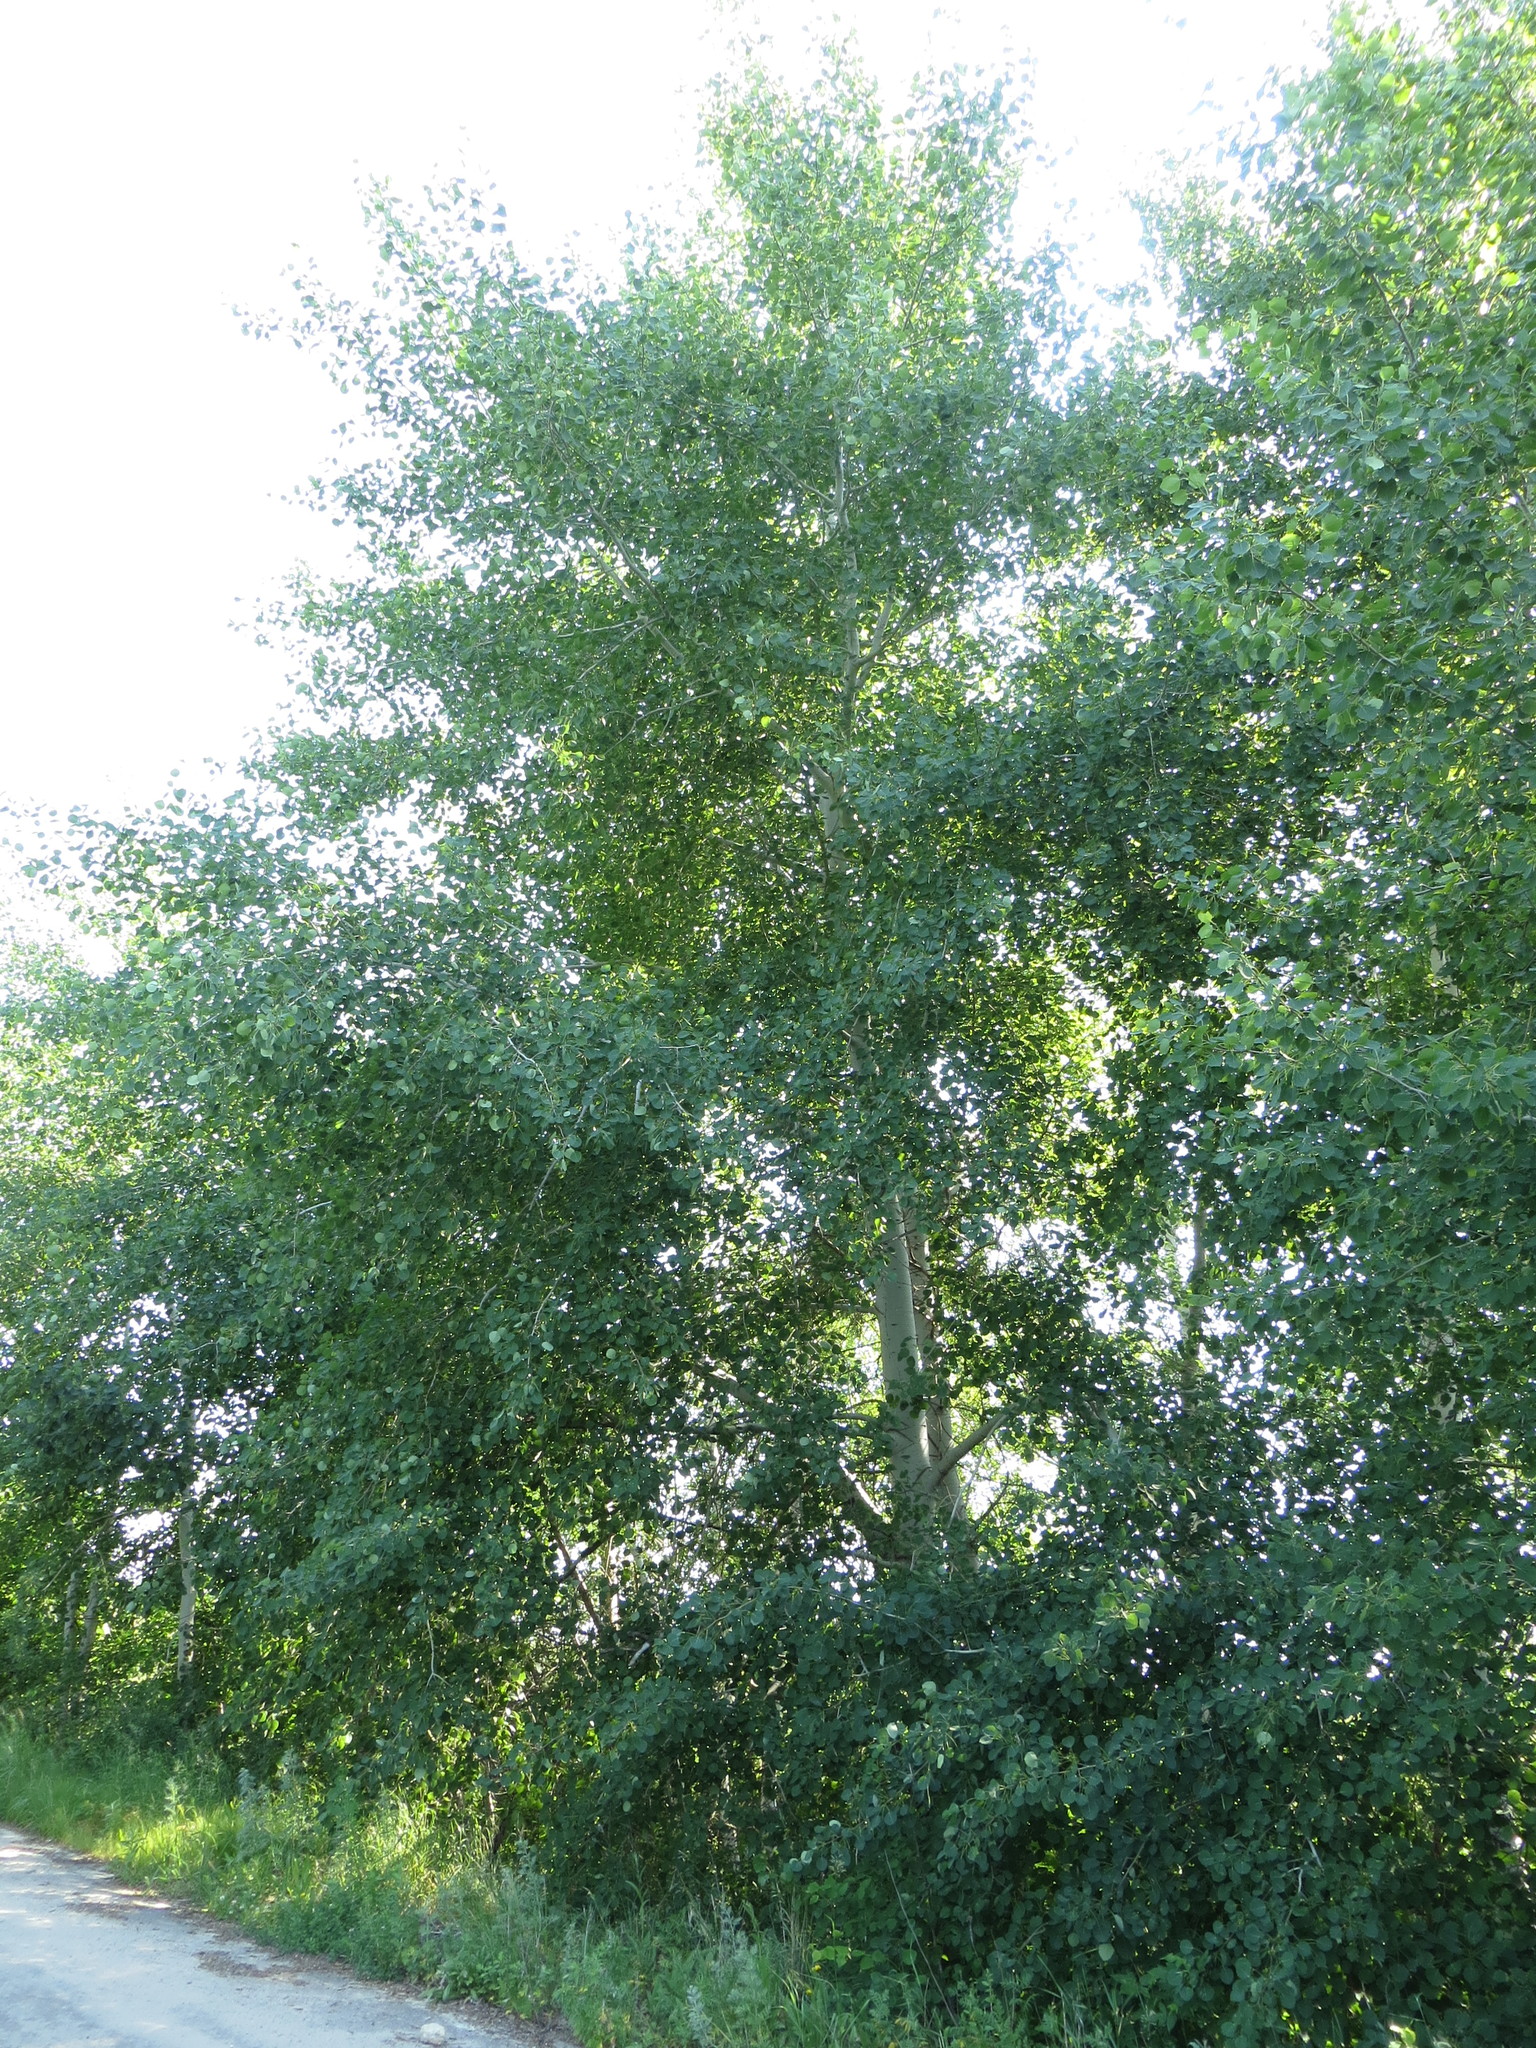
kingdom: Plantae
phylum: Tracheophyta
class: Magnoliopsida
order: Malpighiales
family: Salicaceae
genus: Populus
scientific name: Populus tremula
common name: European aspen
